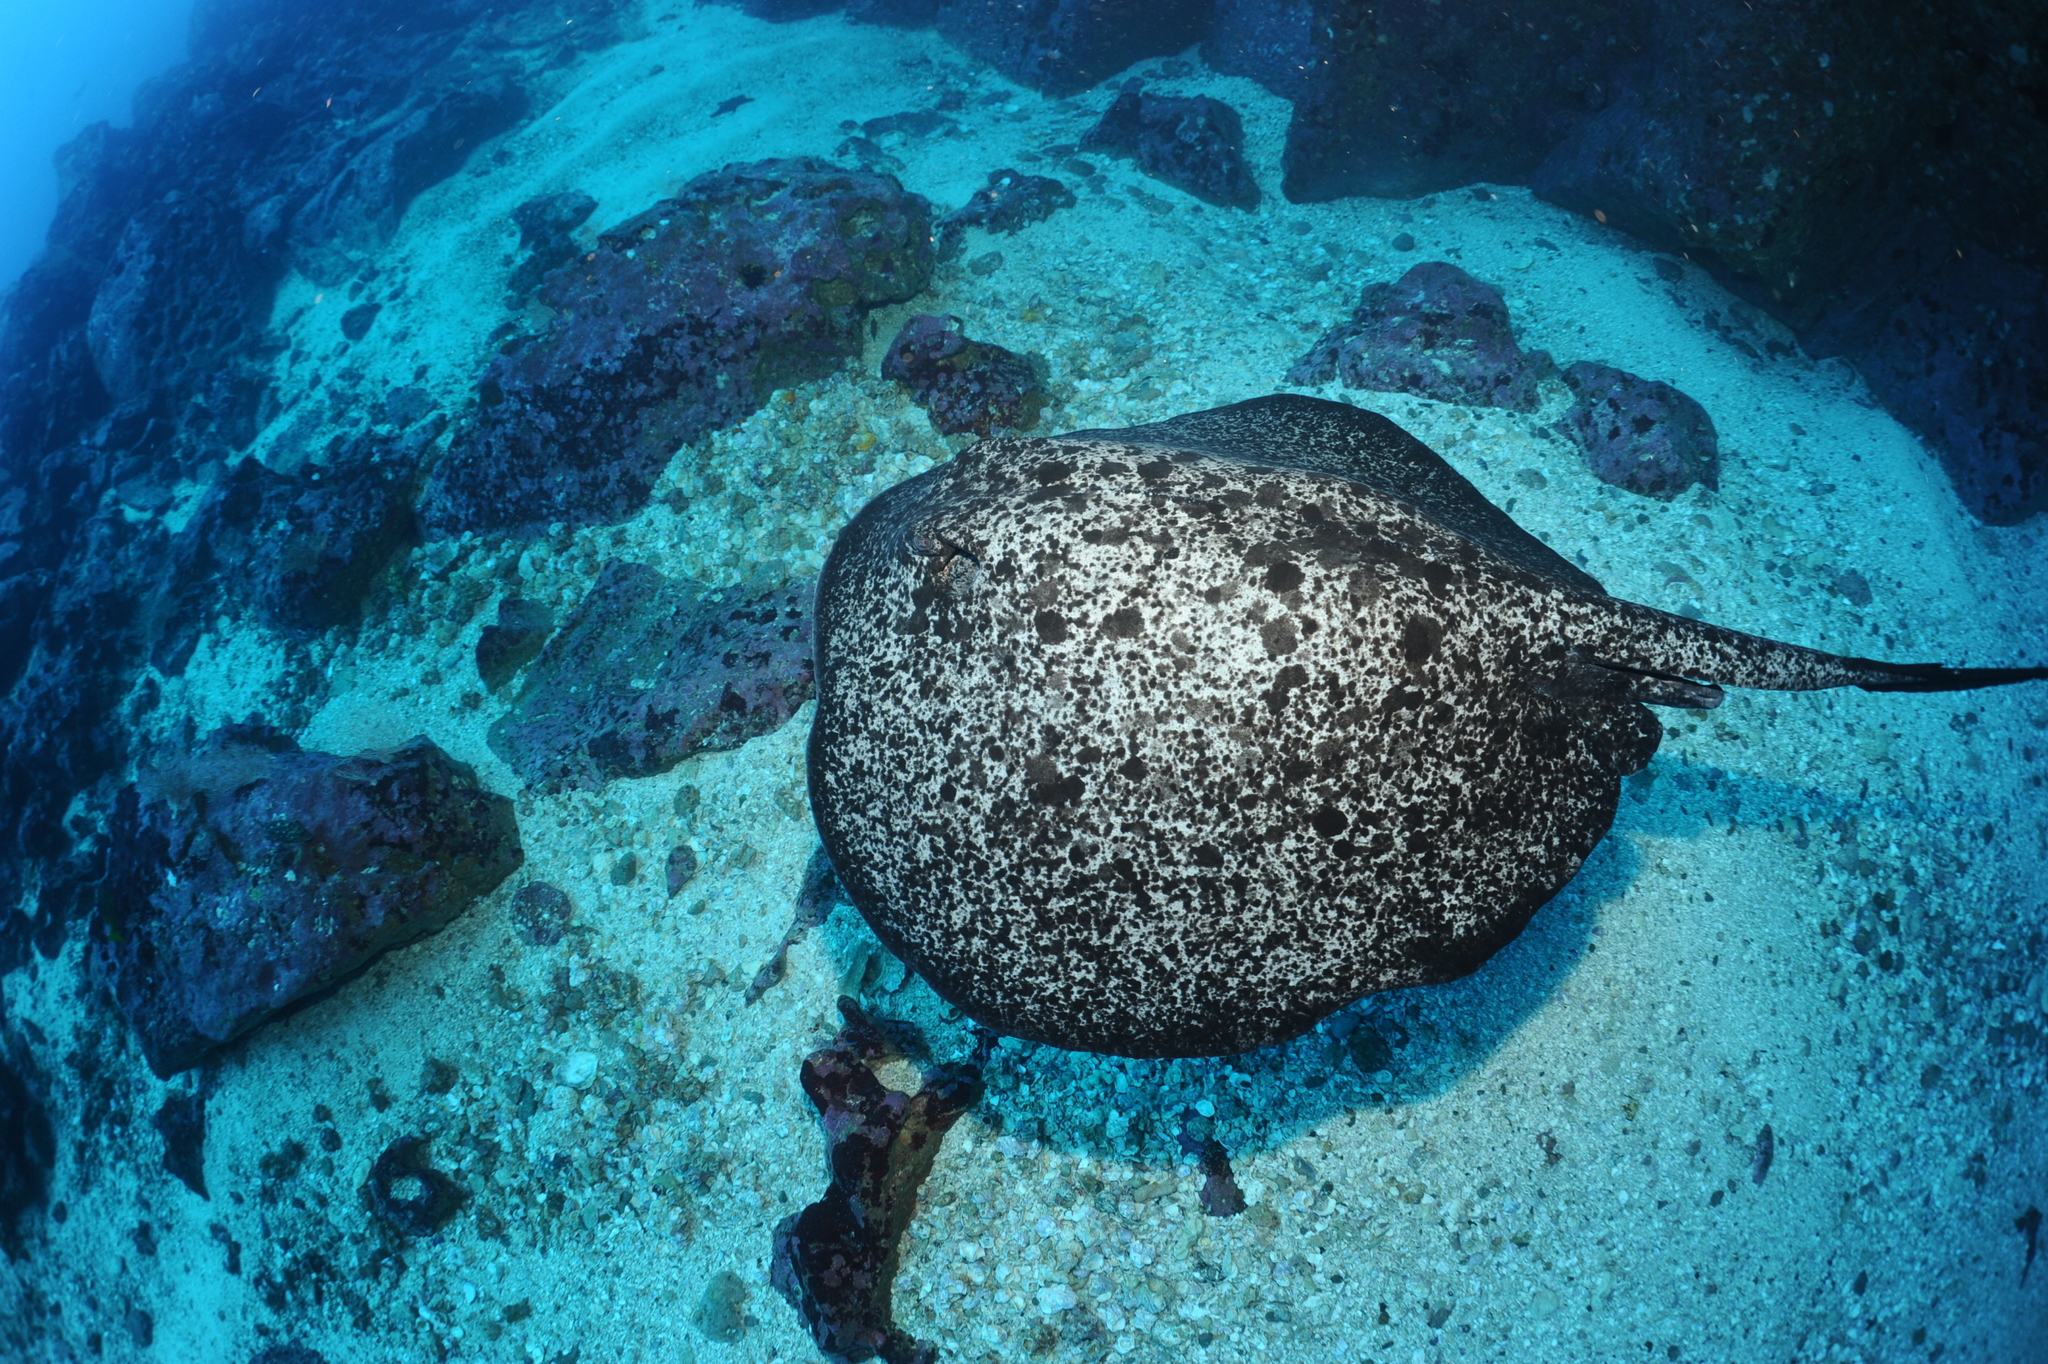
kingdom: Animalia
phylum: Chordata
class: Elasmobranchii
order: Myliobatiformes
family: Dasyatidae
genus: Taeniurops
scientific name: Taeniurops meyeni
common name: Black-blotched stingray
